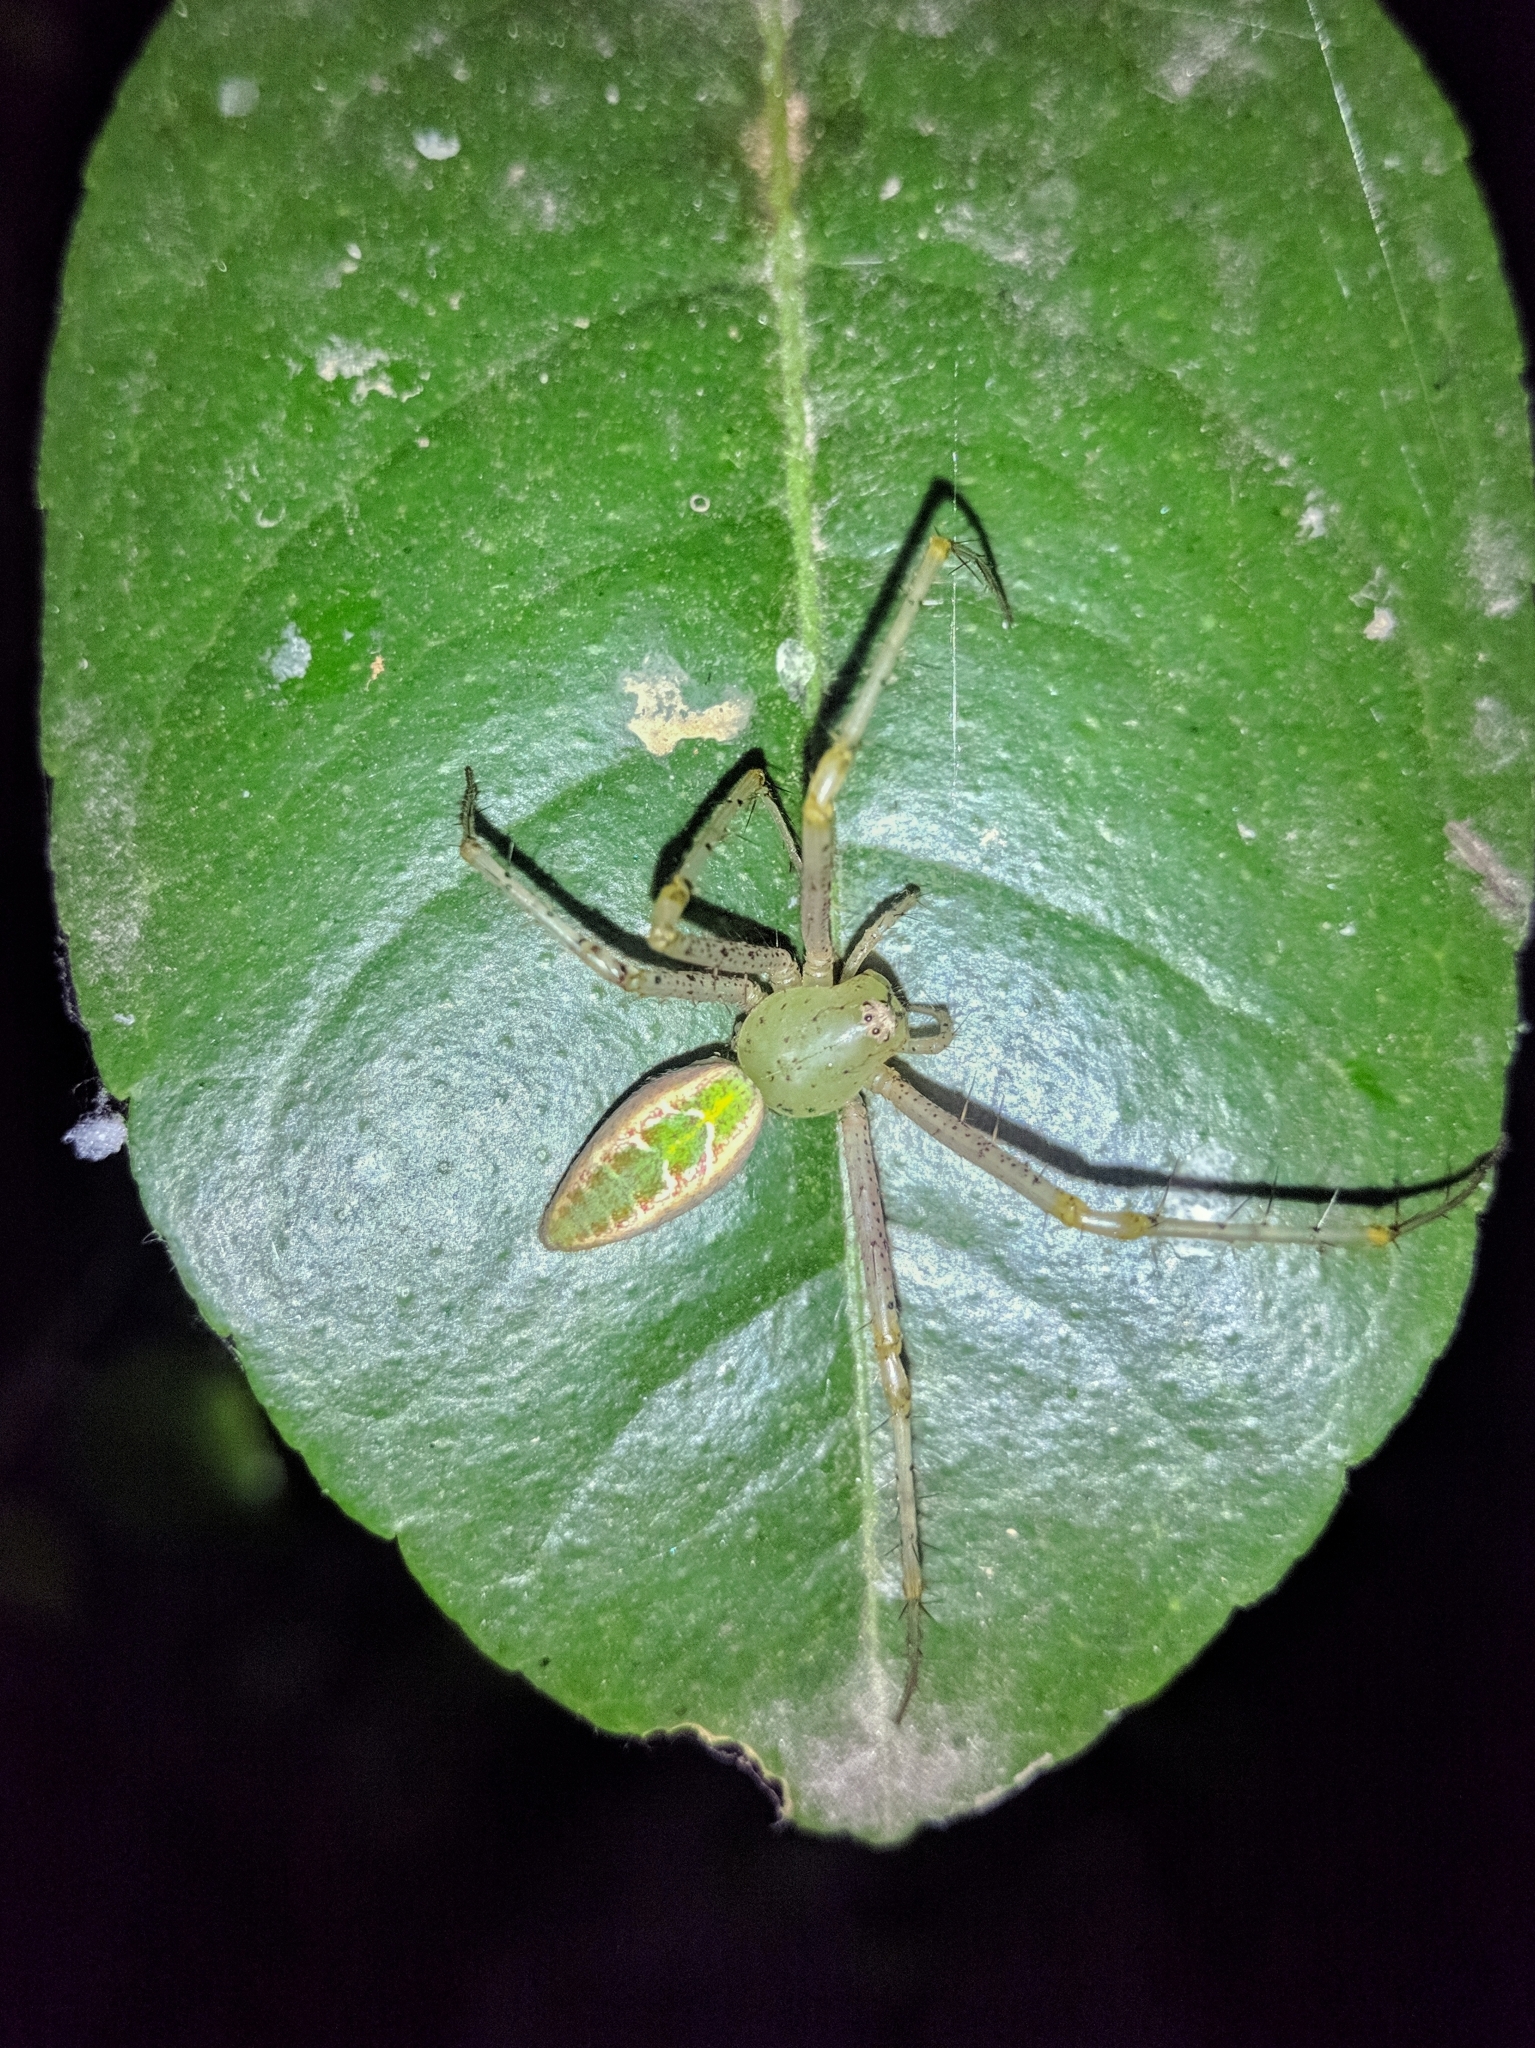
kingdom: Animalia
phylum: Arthropoda
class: Arachnida
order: Araneae
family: Oxyopidae
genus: Peucetia
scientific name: Peucetia viridana
